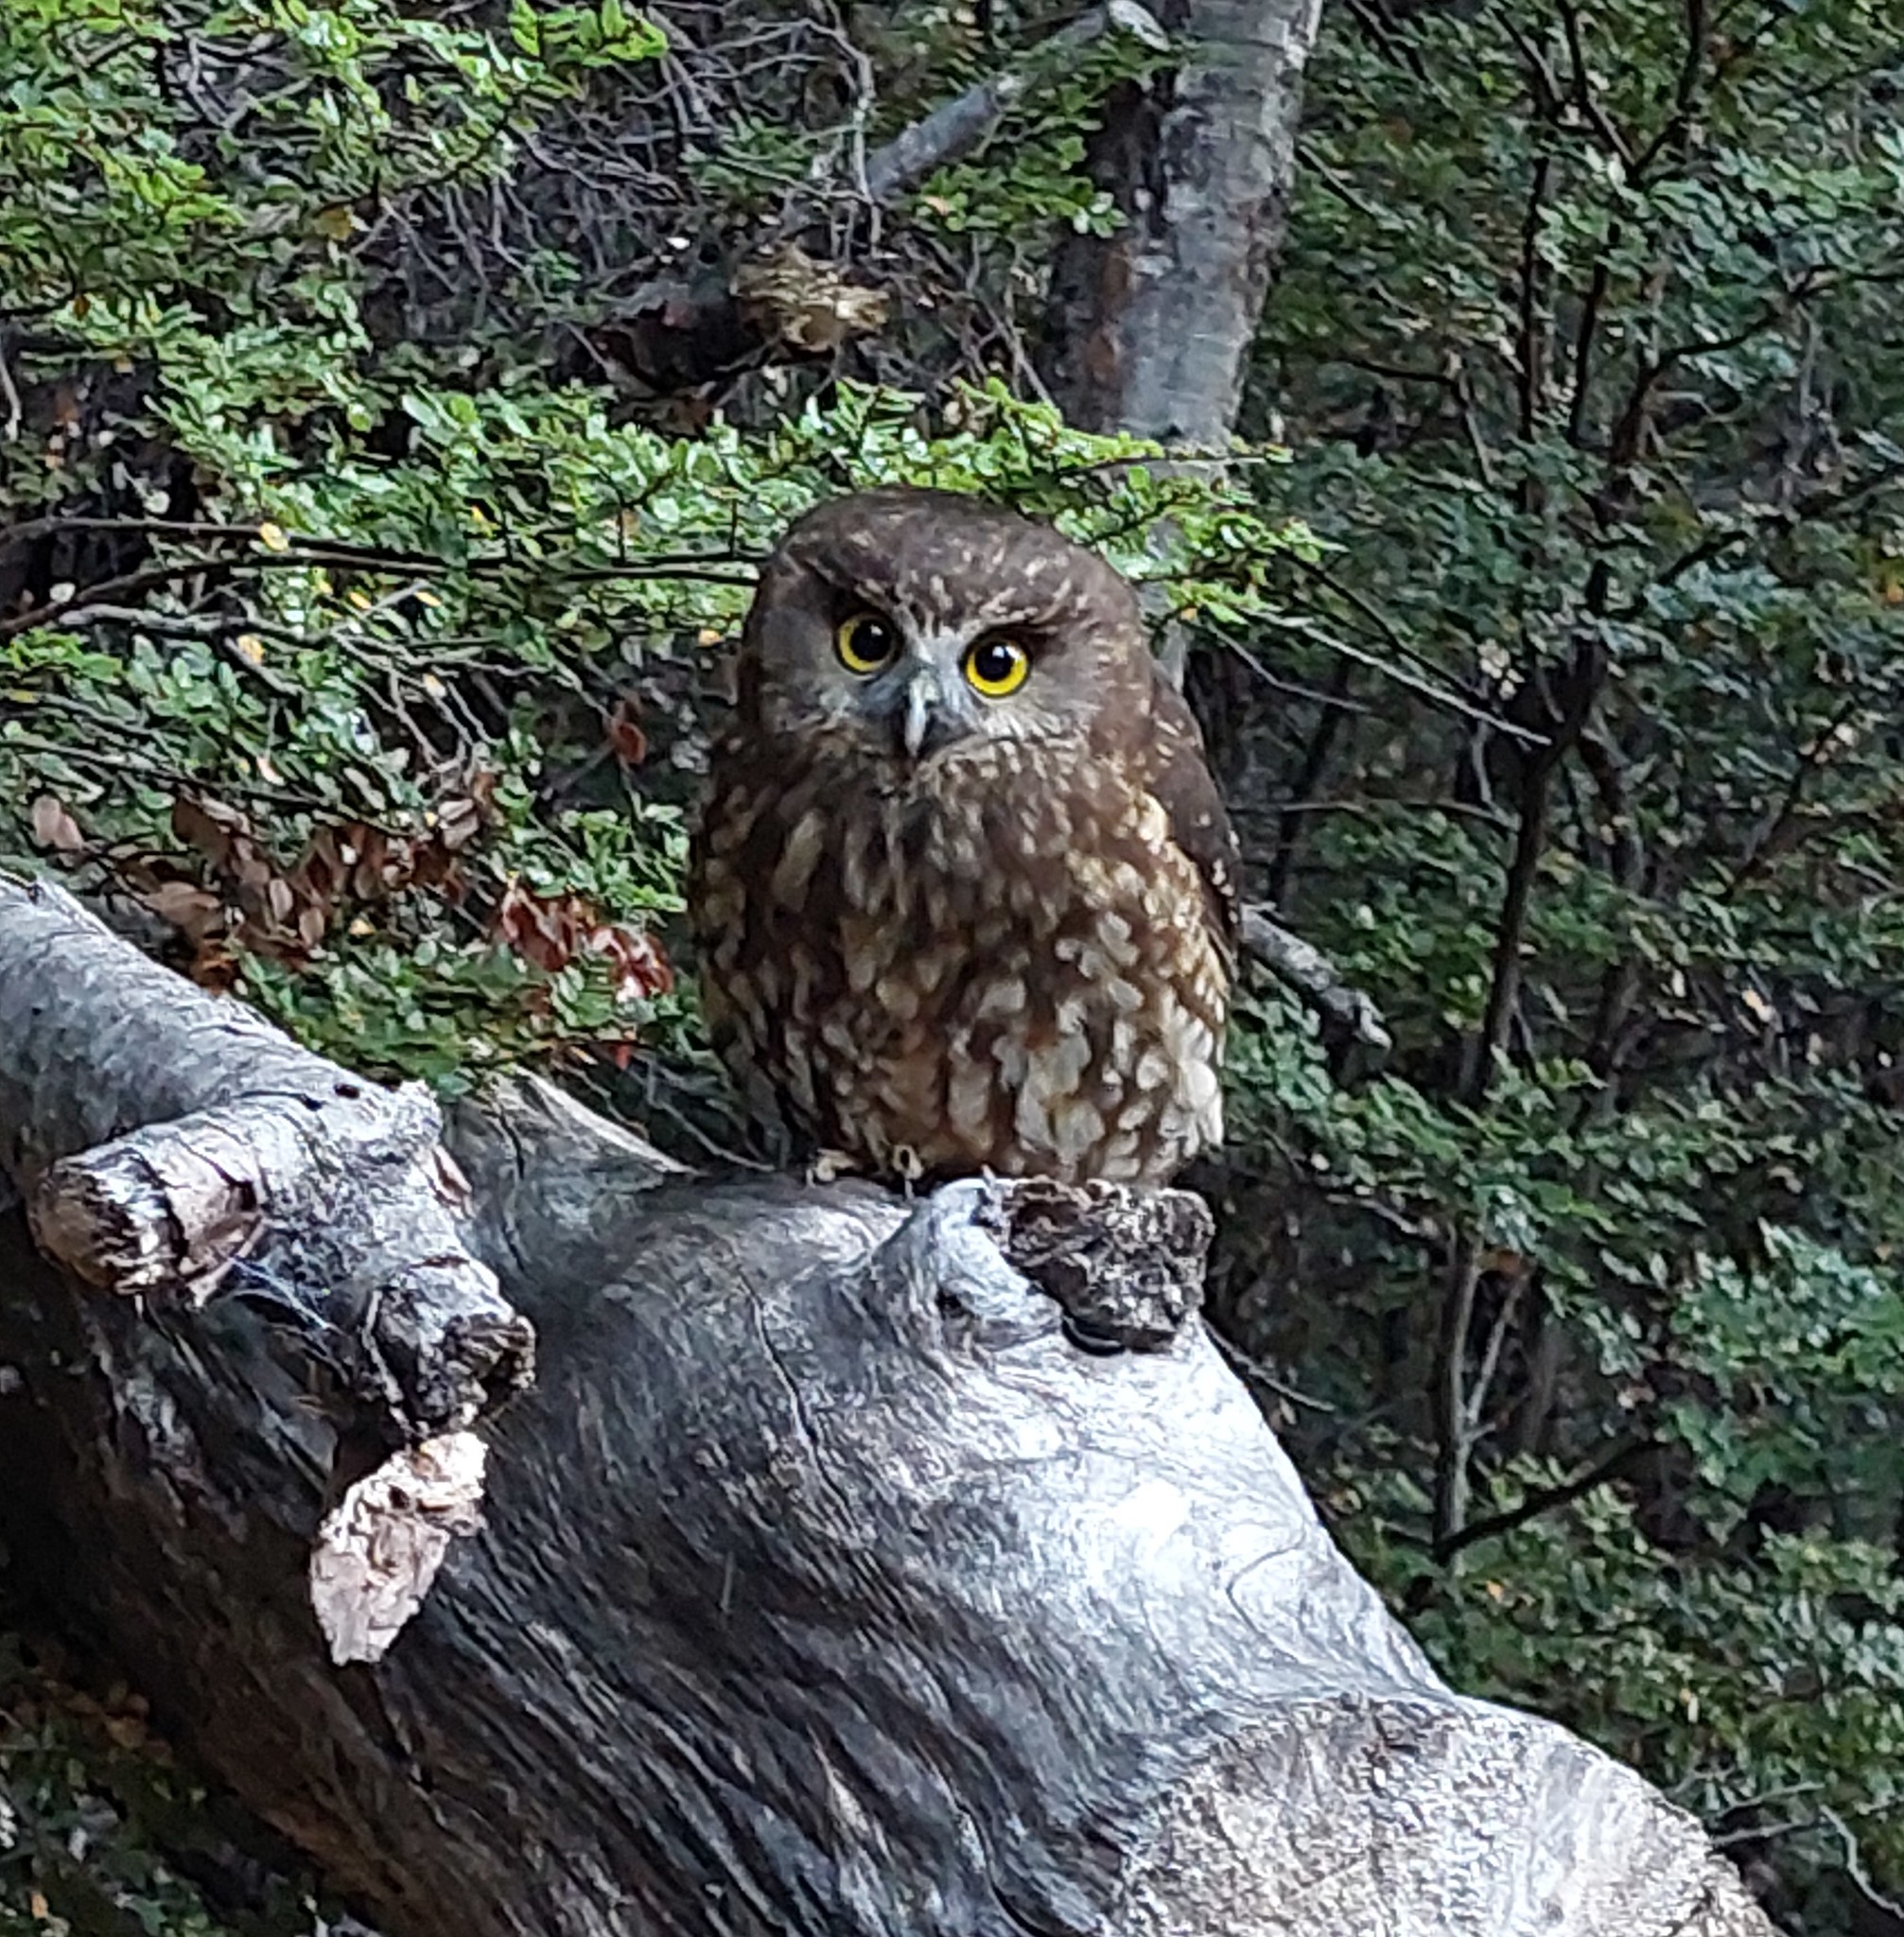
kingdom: Animalia
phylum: Chordata
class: Aves
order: Strigiformes
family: Strigidae
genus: Ninox
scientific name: Ninox novaeseelandiae
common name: Morepork
